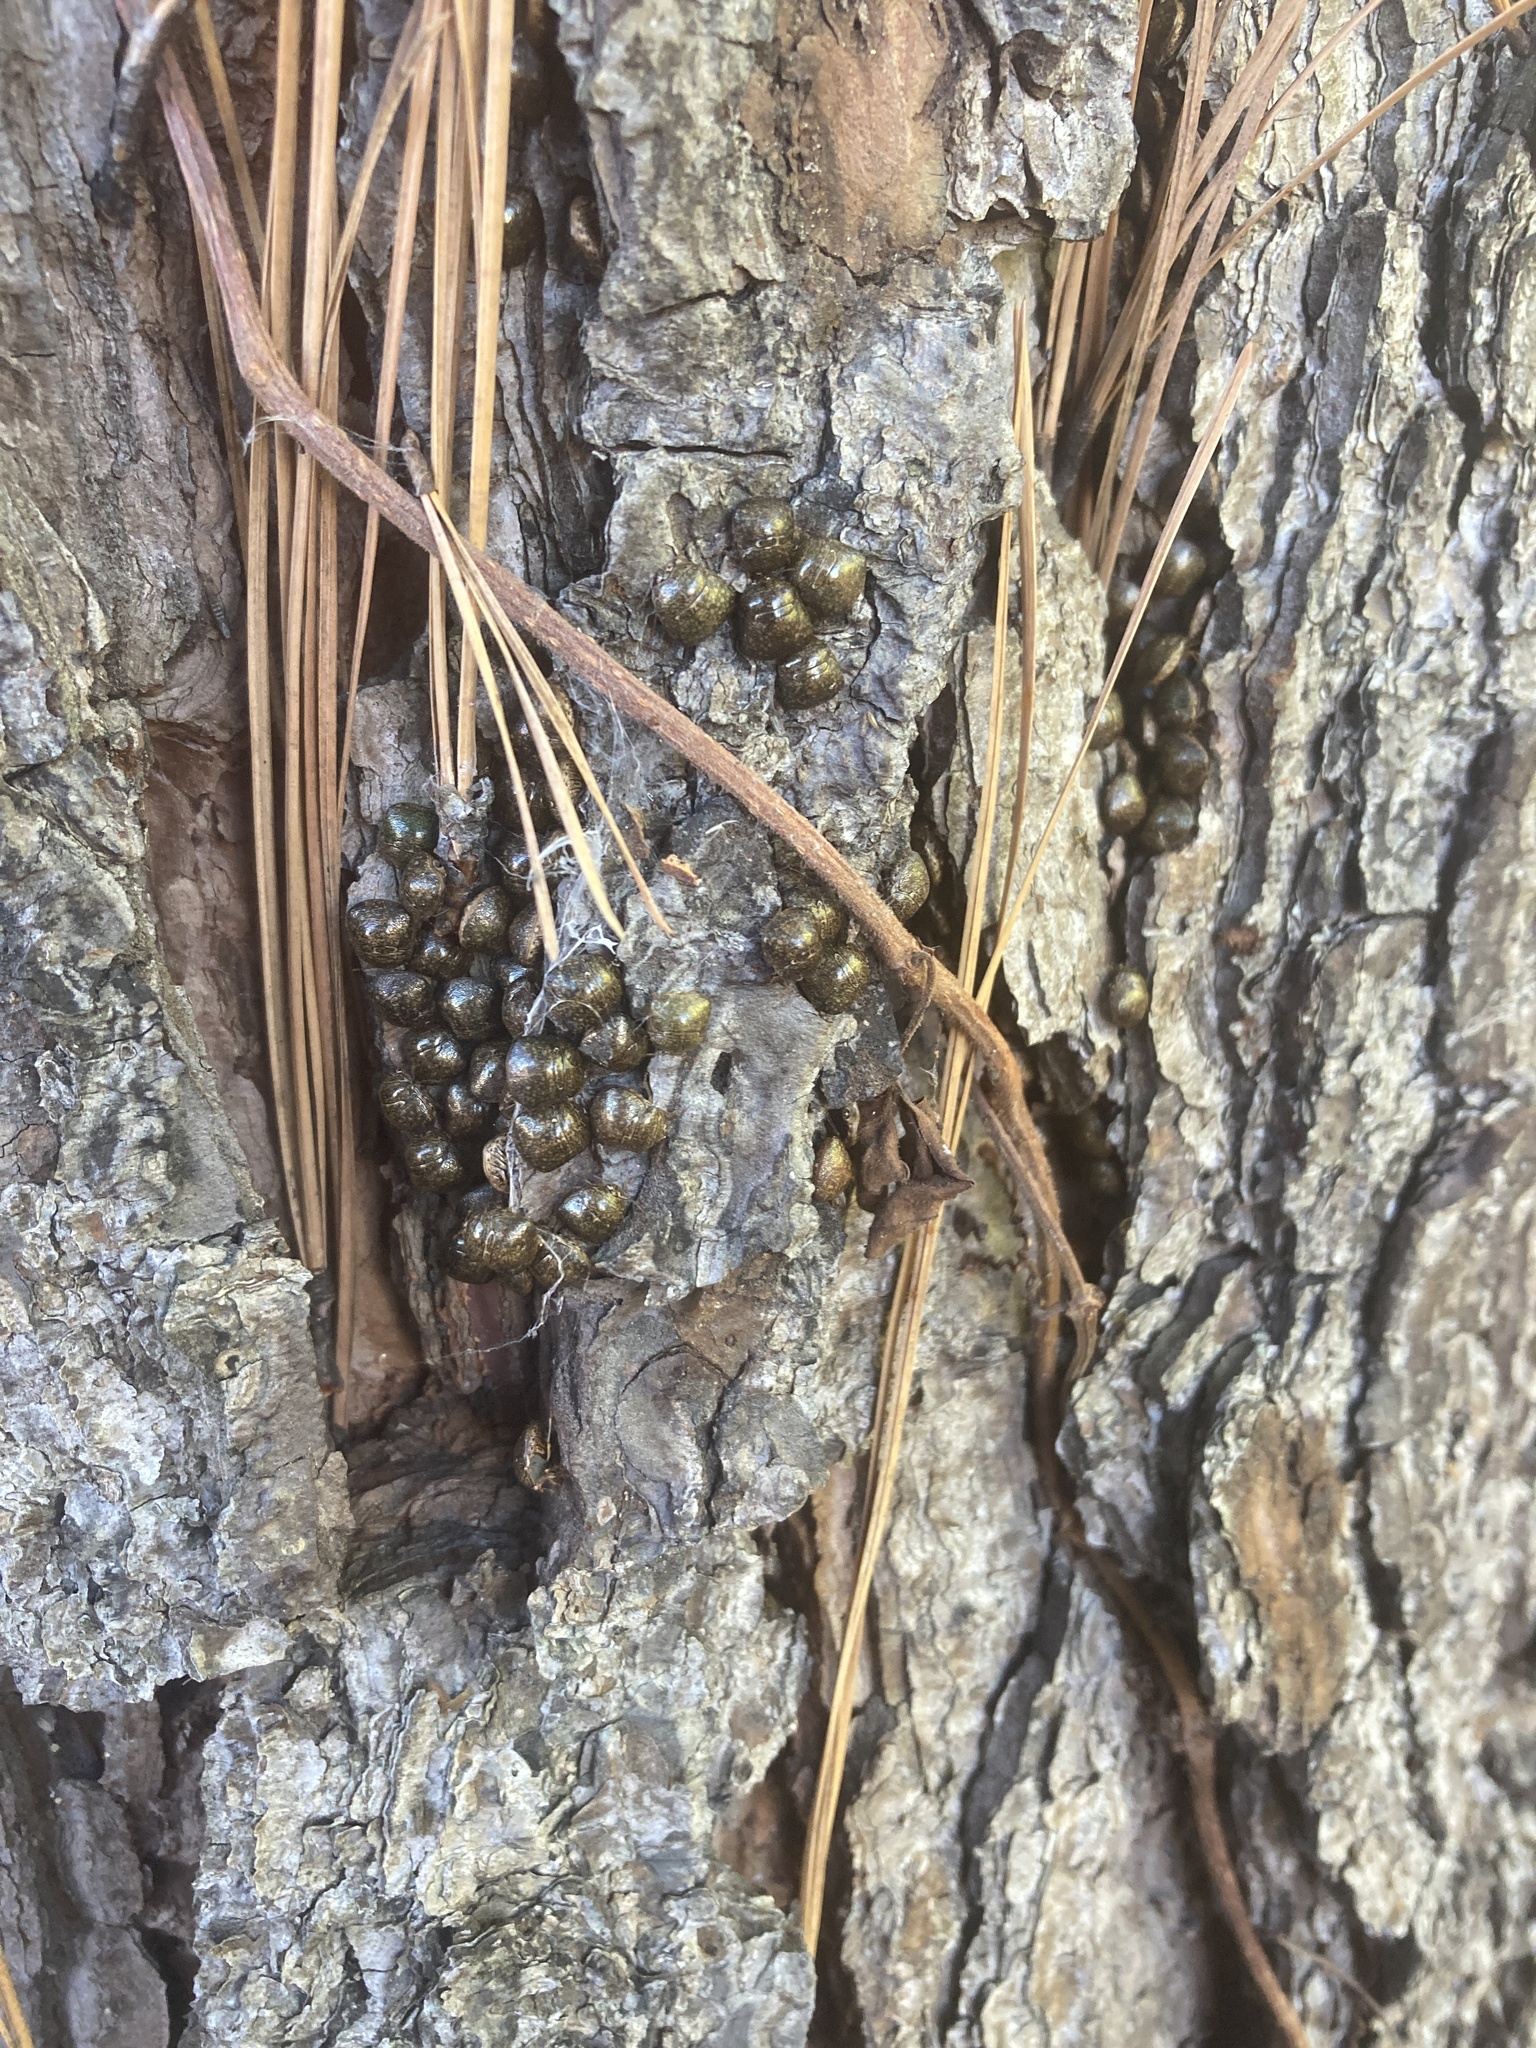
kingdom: Animalia
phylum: Arthropoda
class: Insecta
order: Hemiptera
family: Plataspidae
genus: Megacopta
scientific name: Megacopta cribraria
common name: Bean plataspid
